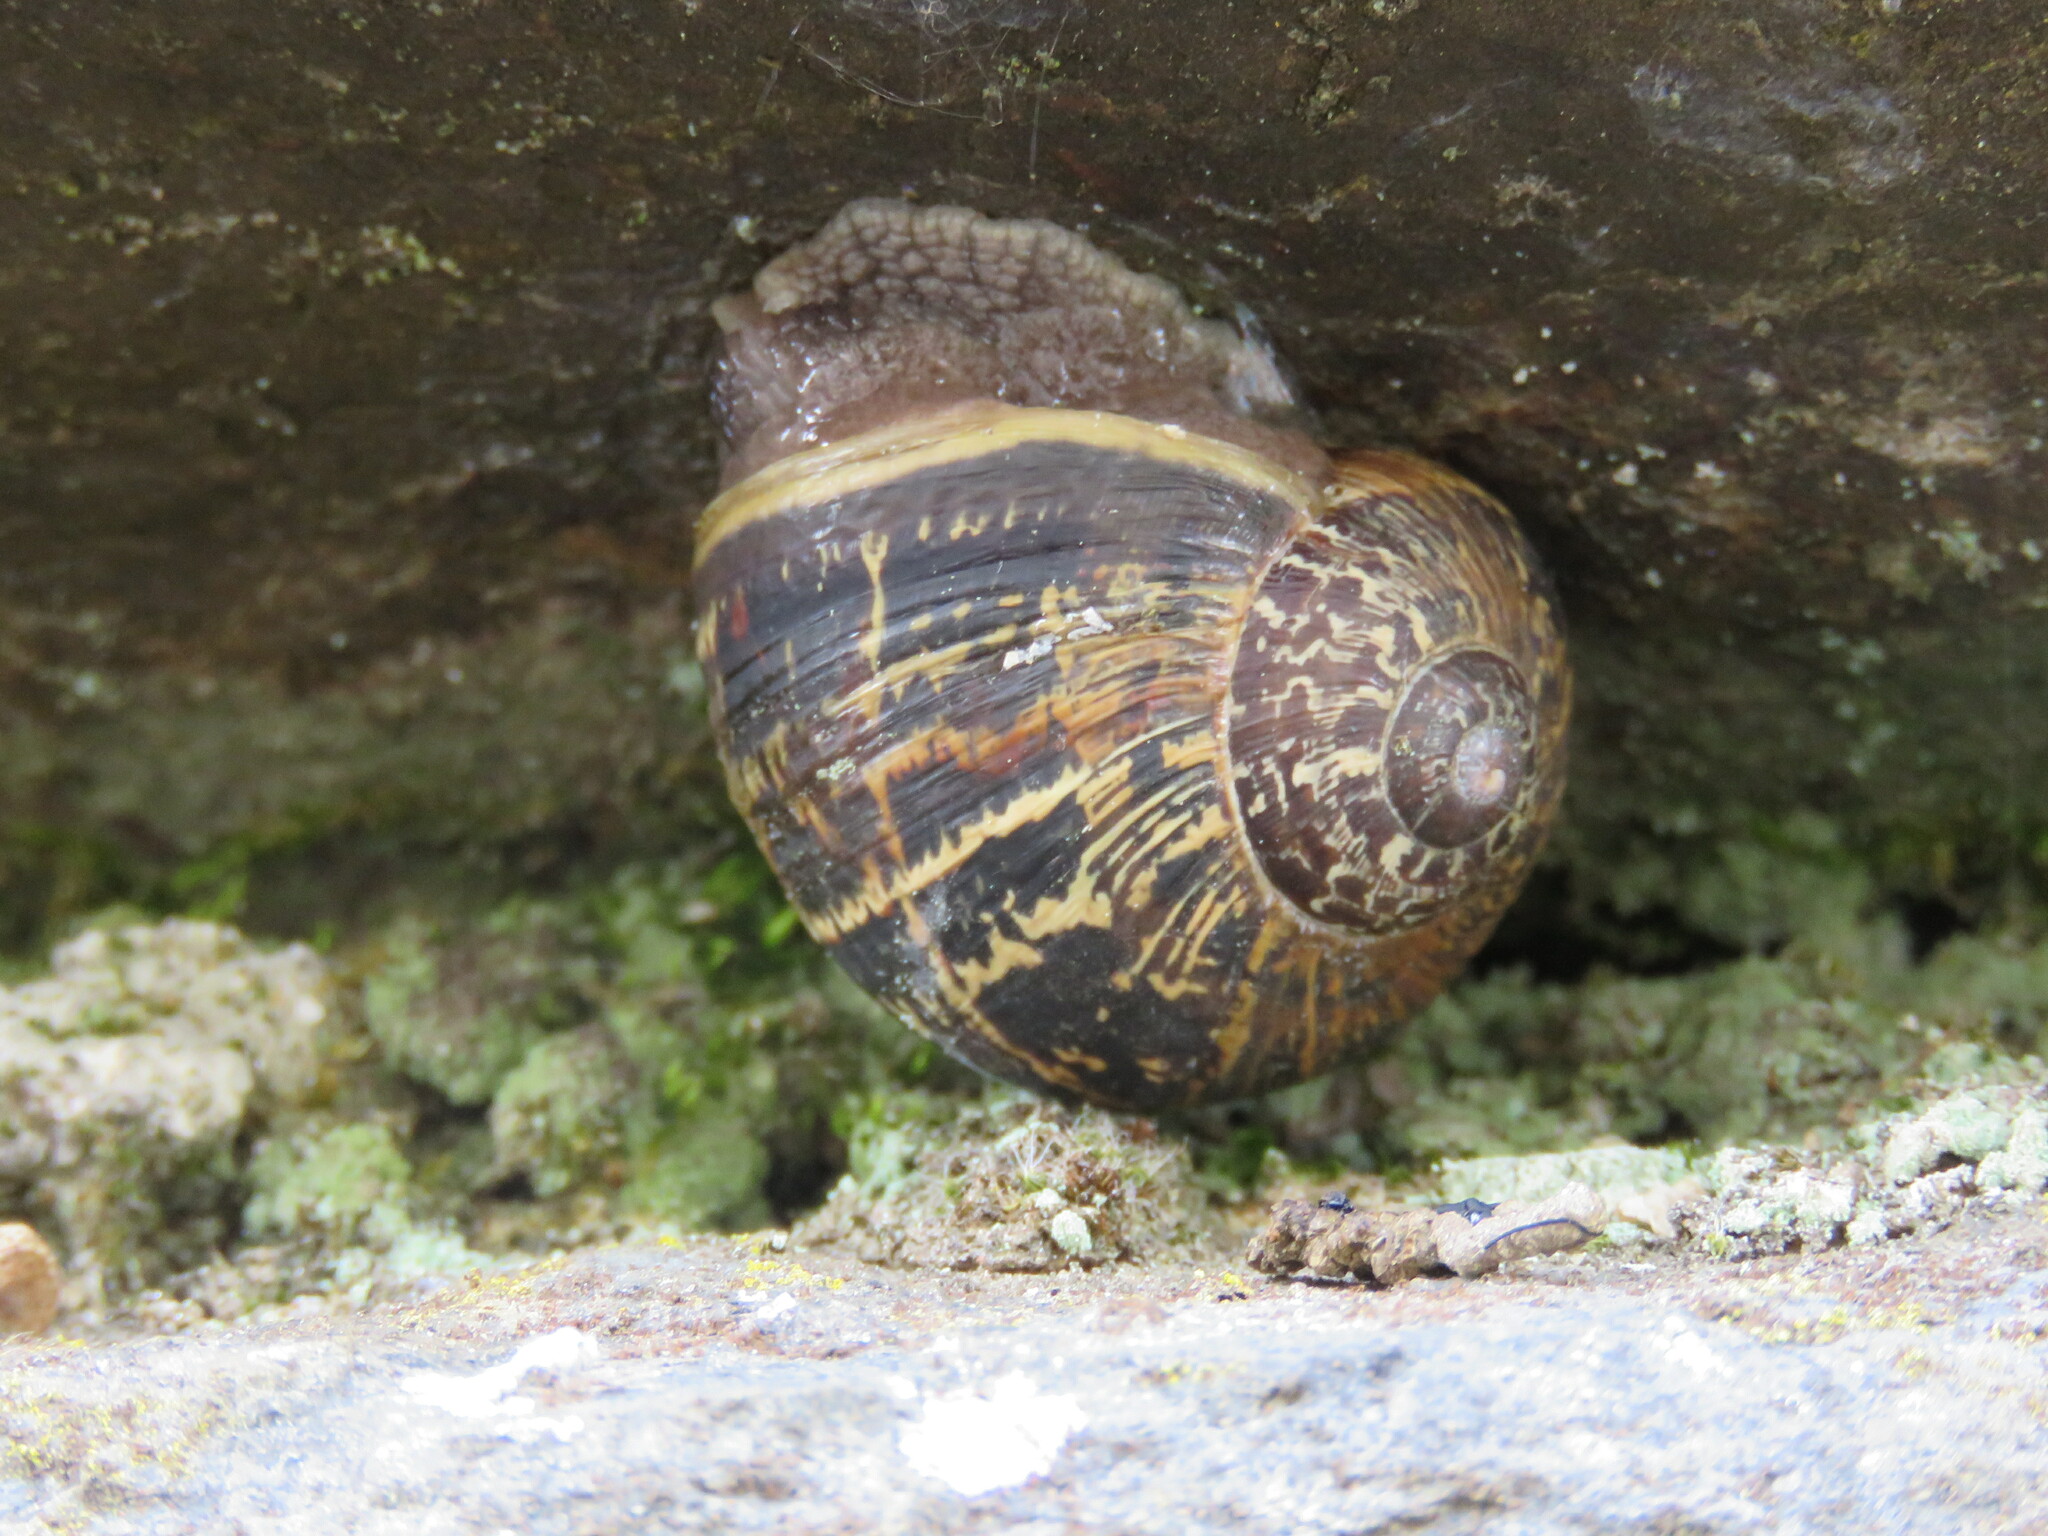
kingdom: Animalia
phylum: Mollusca
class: Gastropoda
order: Stylommatophora
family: Helicidae
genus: Cornu
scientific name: Cornu aspersum
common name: Brown garden snail
